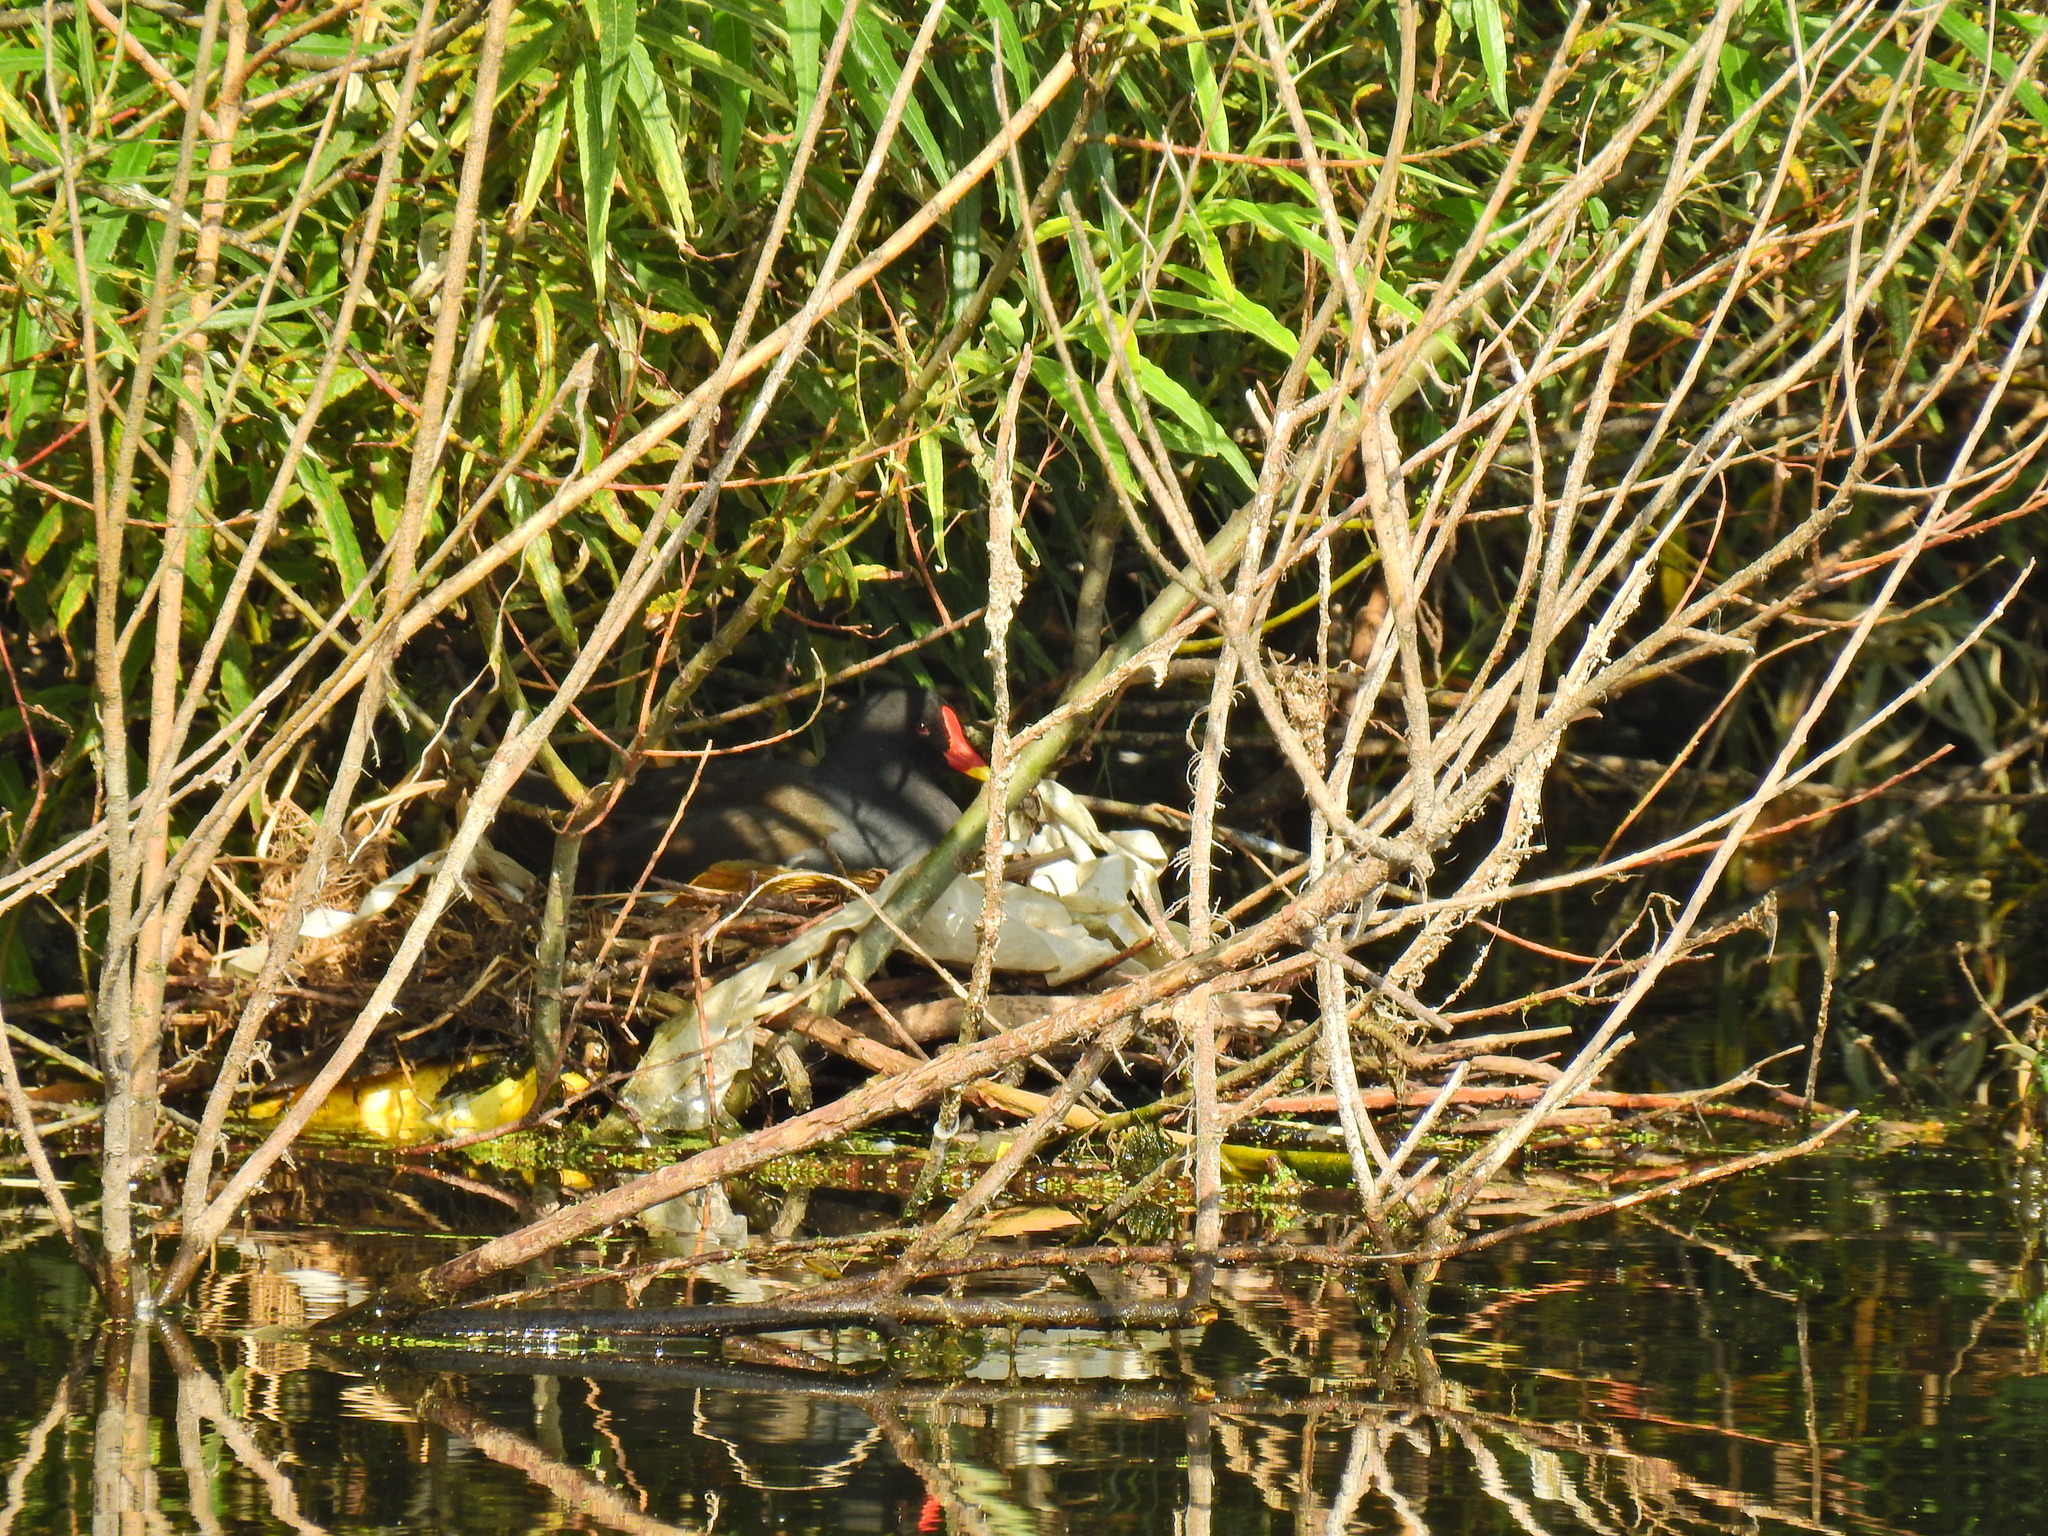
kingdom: Animalia
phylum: Chordata
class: Aves
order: Gruiformes
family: Rallidae
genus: Gallinula
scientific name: Gallinula chloropus
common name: Common moorhen
